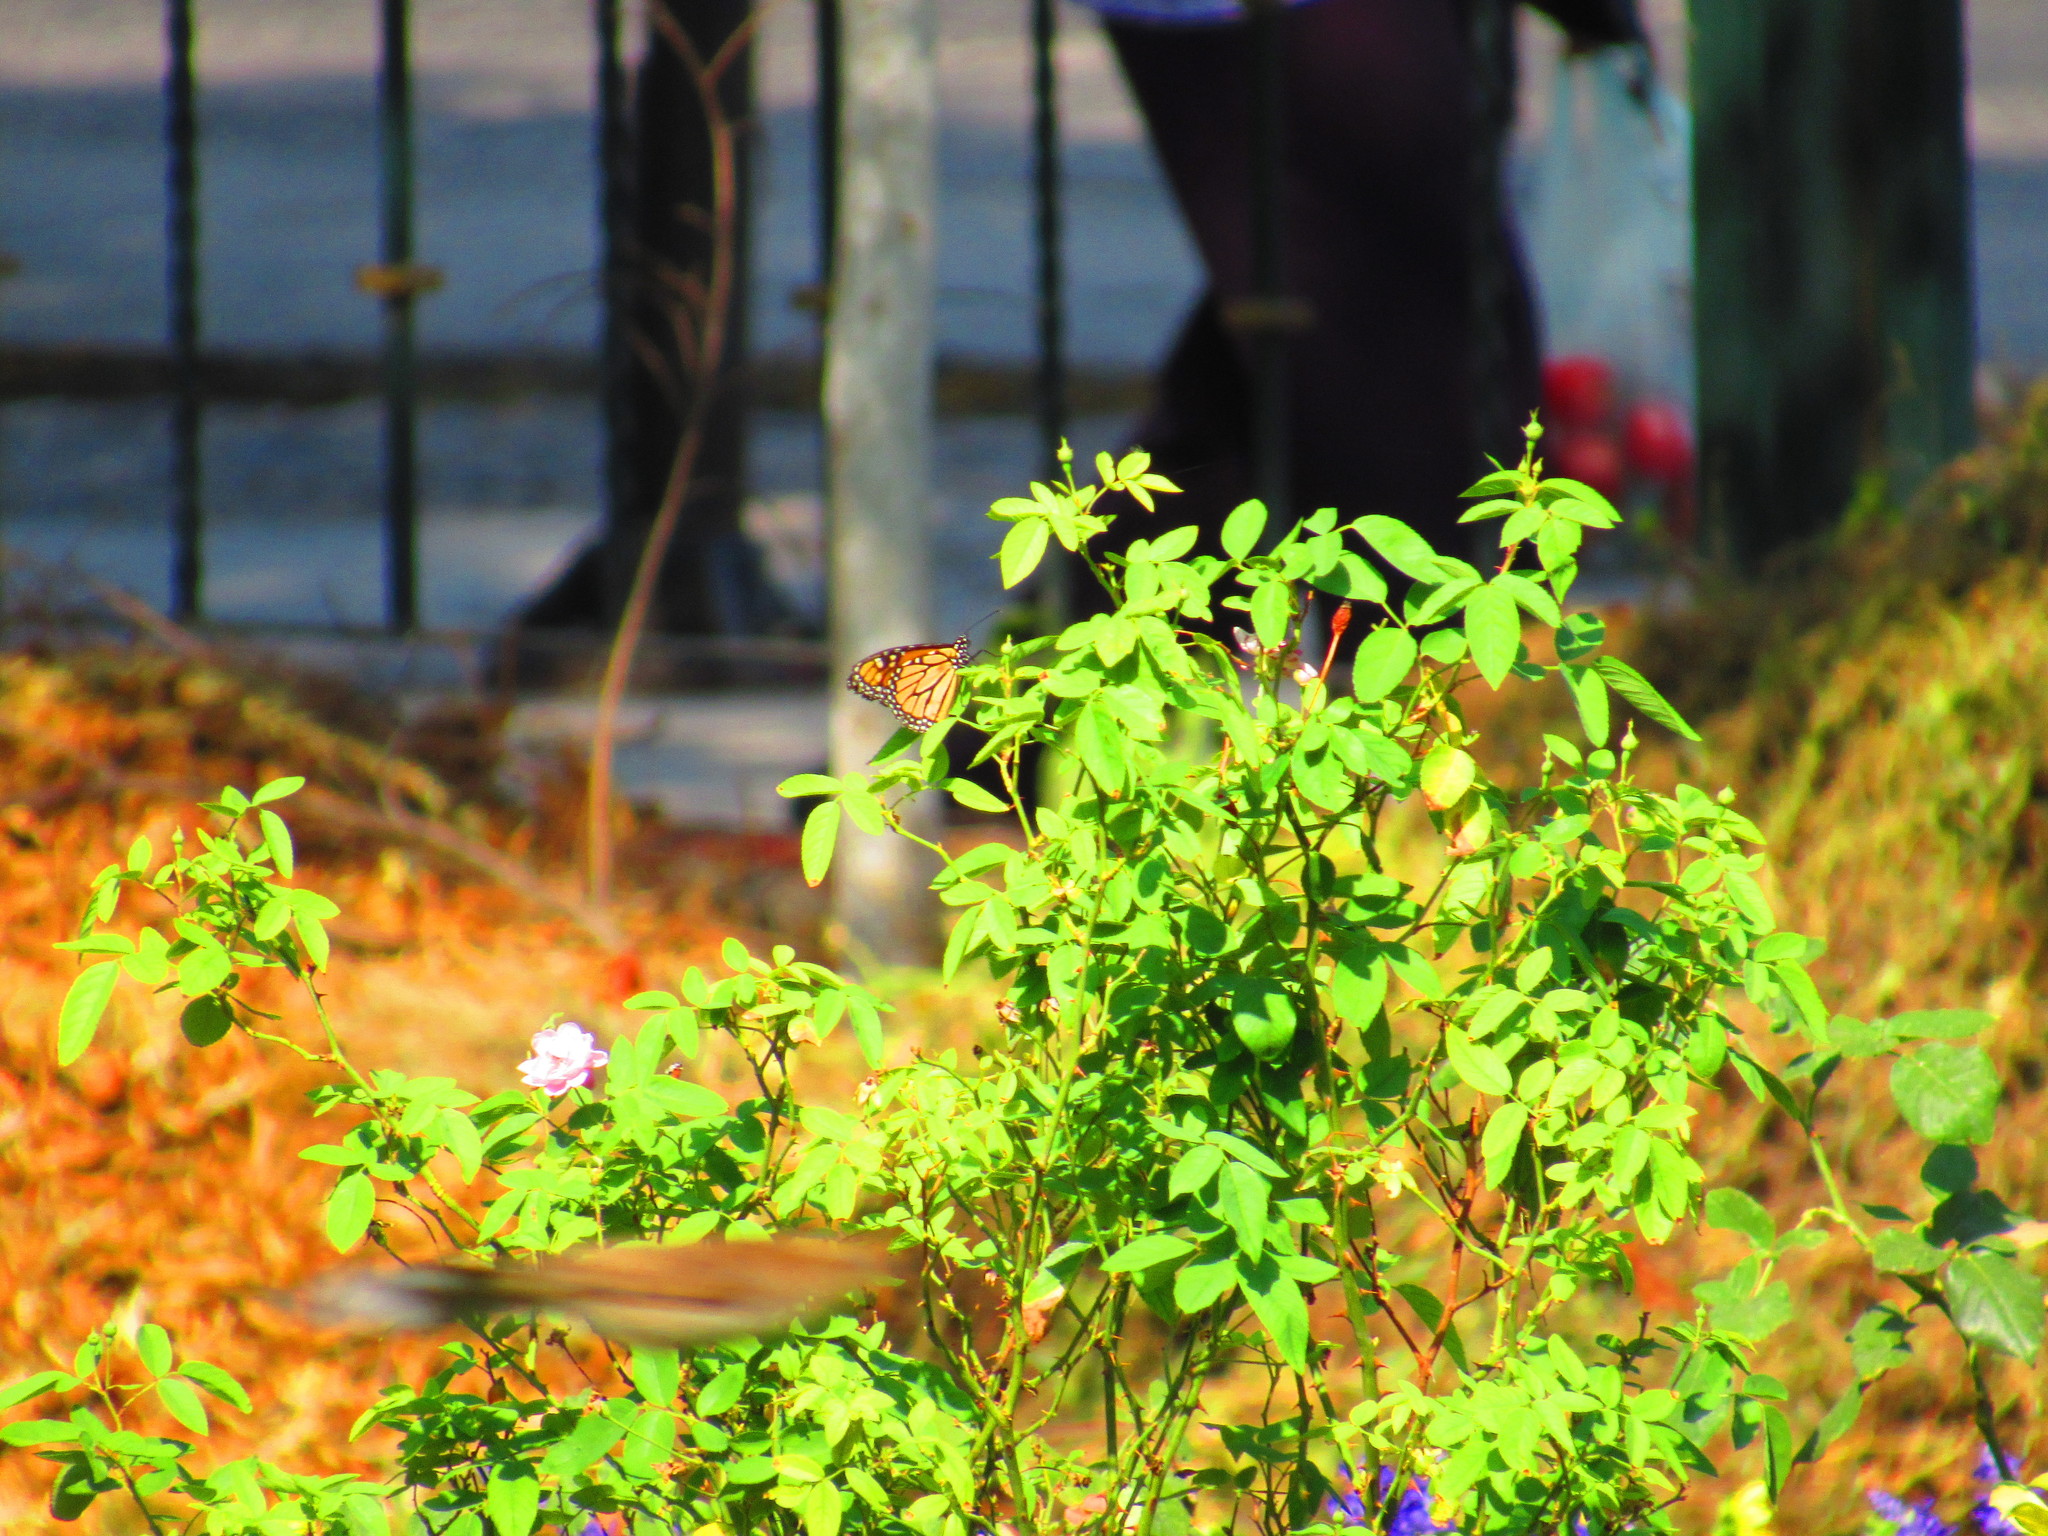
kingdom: Animalia
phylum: Arthropoda
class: Insecta
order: Lepidoptera
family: Nymphalidae
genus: Danaus
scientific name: Danaus plexippus
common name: Monarch
